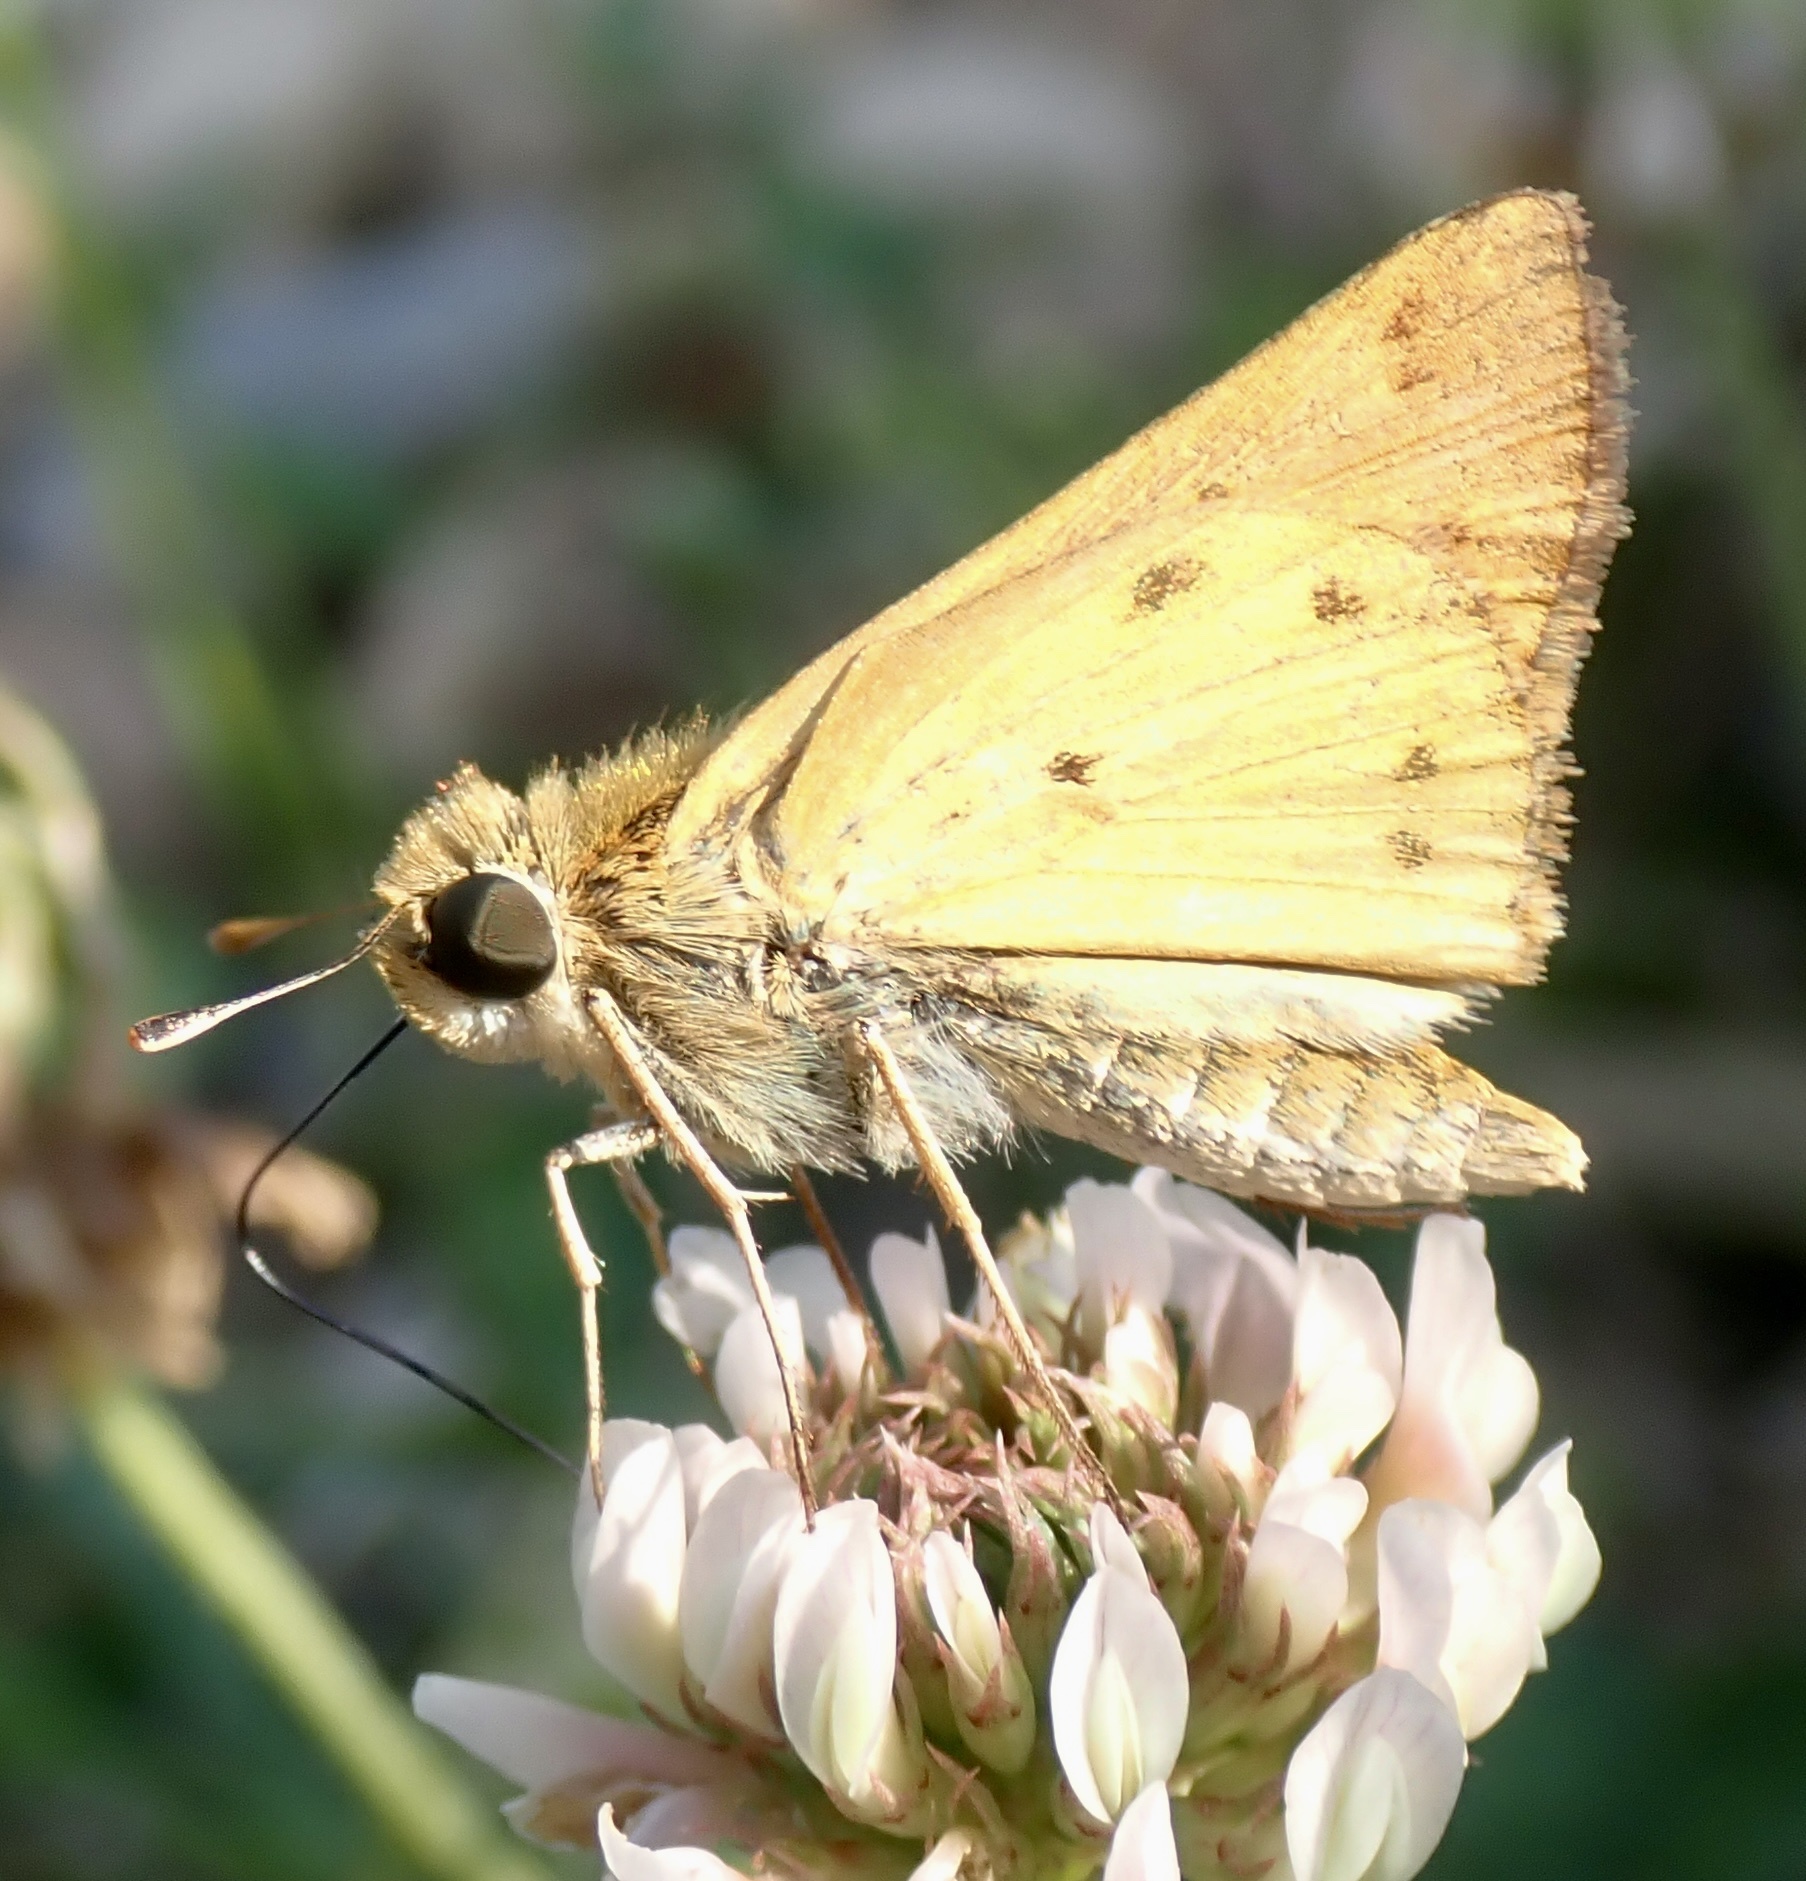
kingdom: Animalia
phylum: Arthropoda
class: Insecta
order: Lepidoptera
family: Hesperiidae
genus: Hylephila
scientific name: Hylephila phyleus
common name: Fiery skipper
